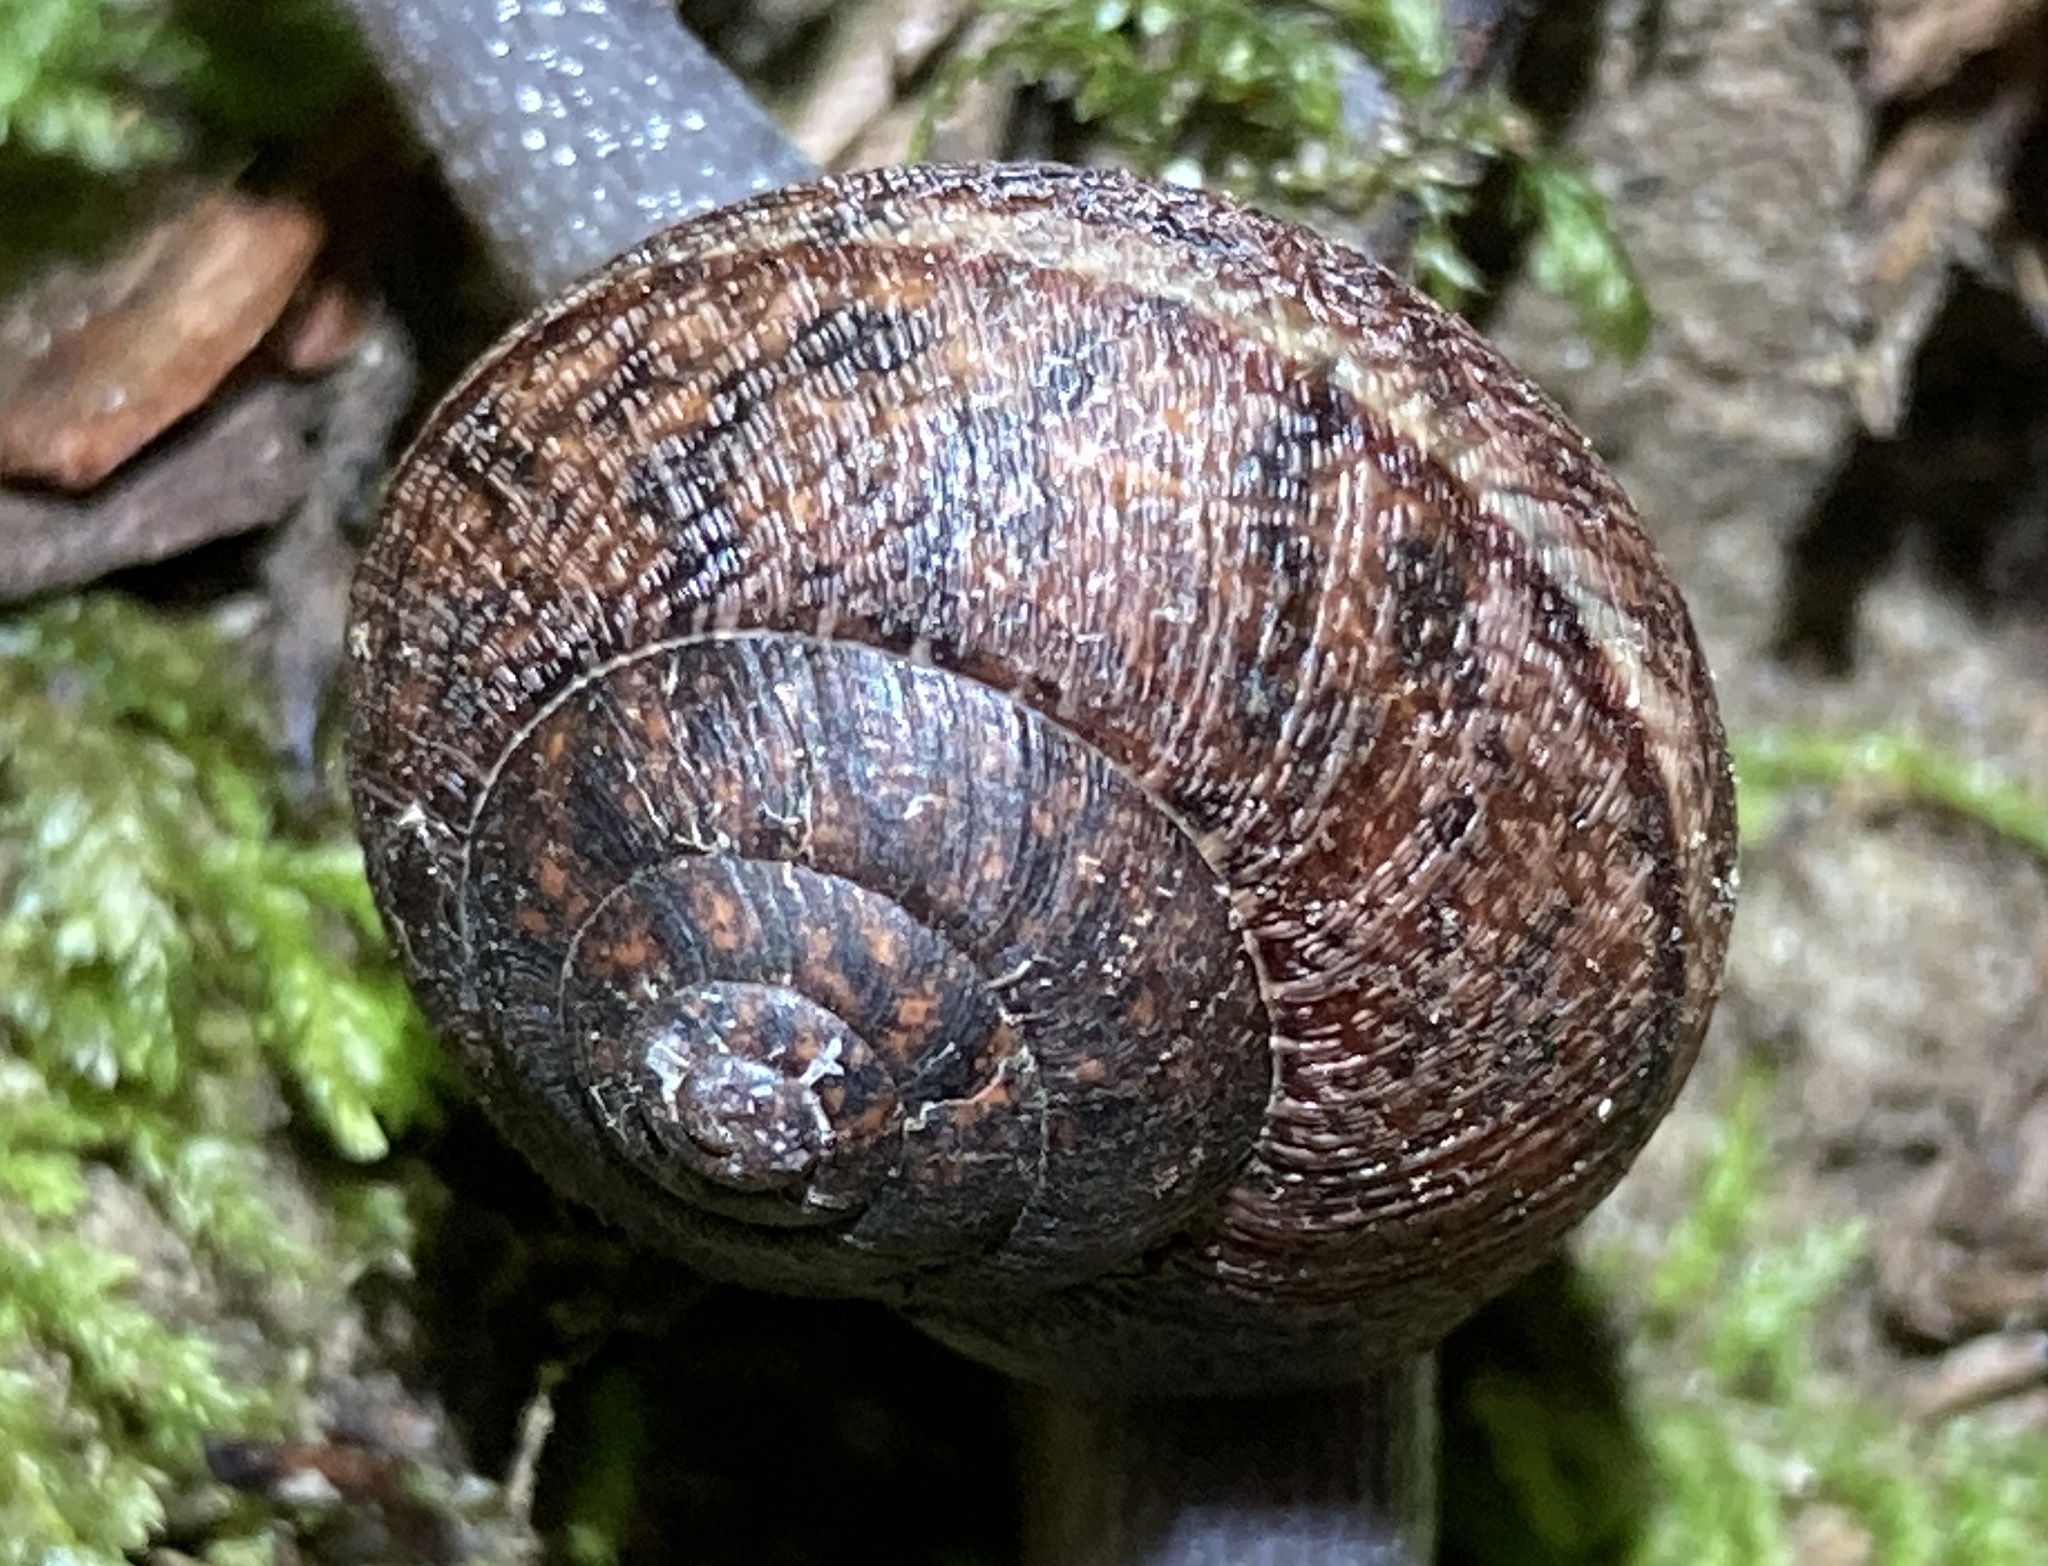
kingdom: Animalia
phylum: Mollusca
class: Gastropoda
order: Stylommatophora
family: Xanthonychidae
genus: Helminthoglypta
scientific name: Helminthoglypta nickliniana
